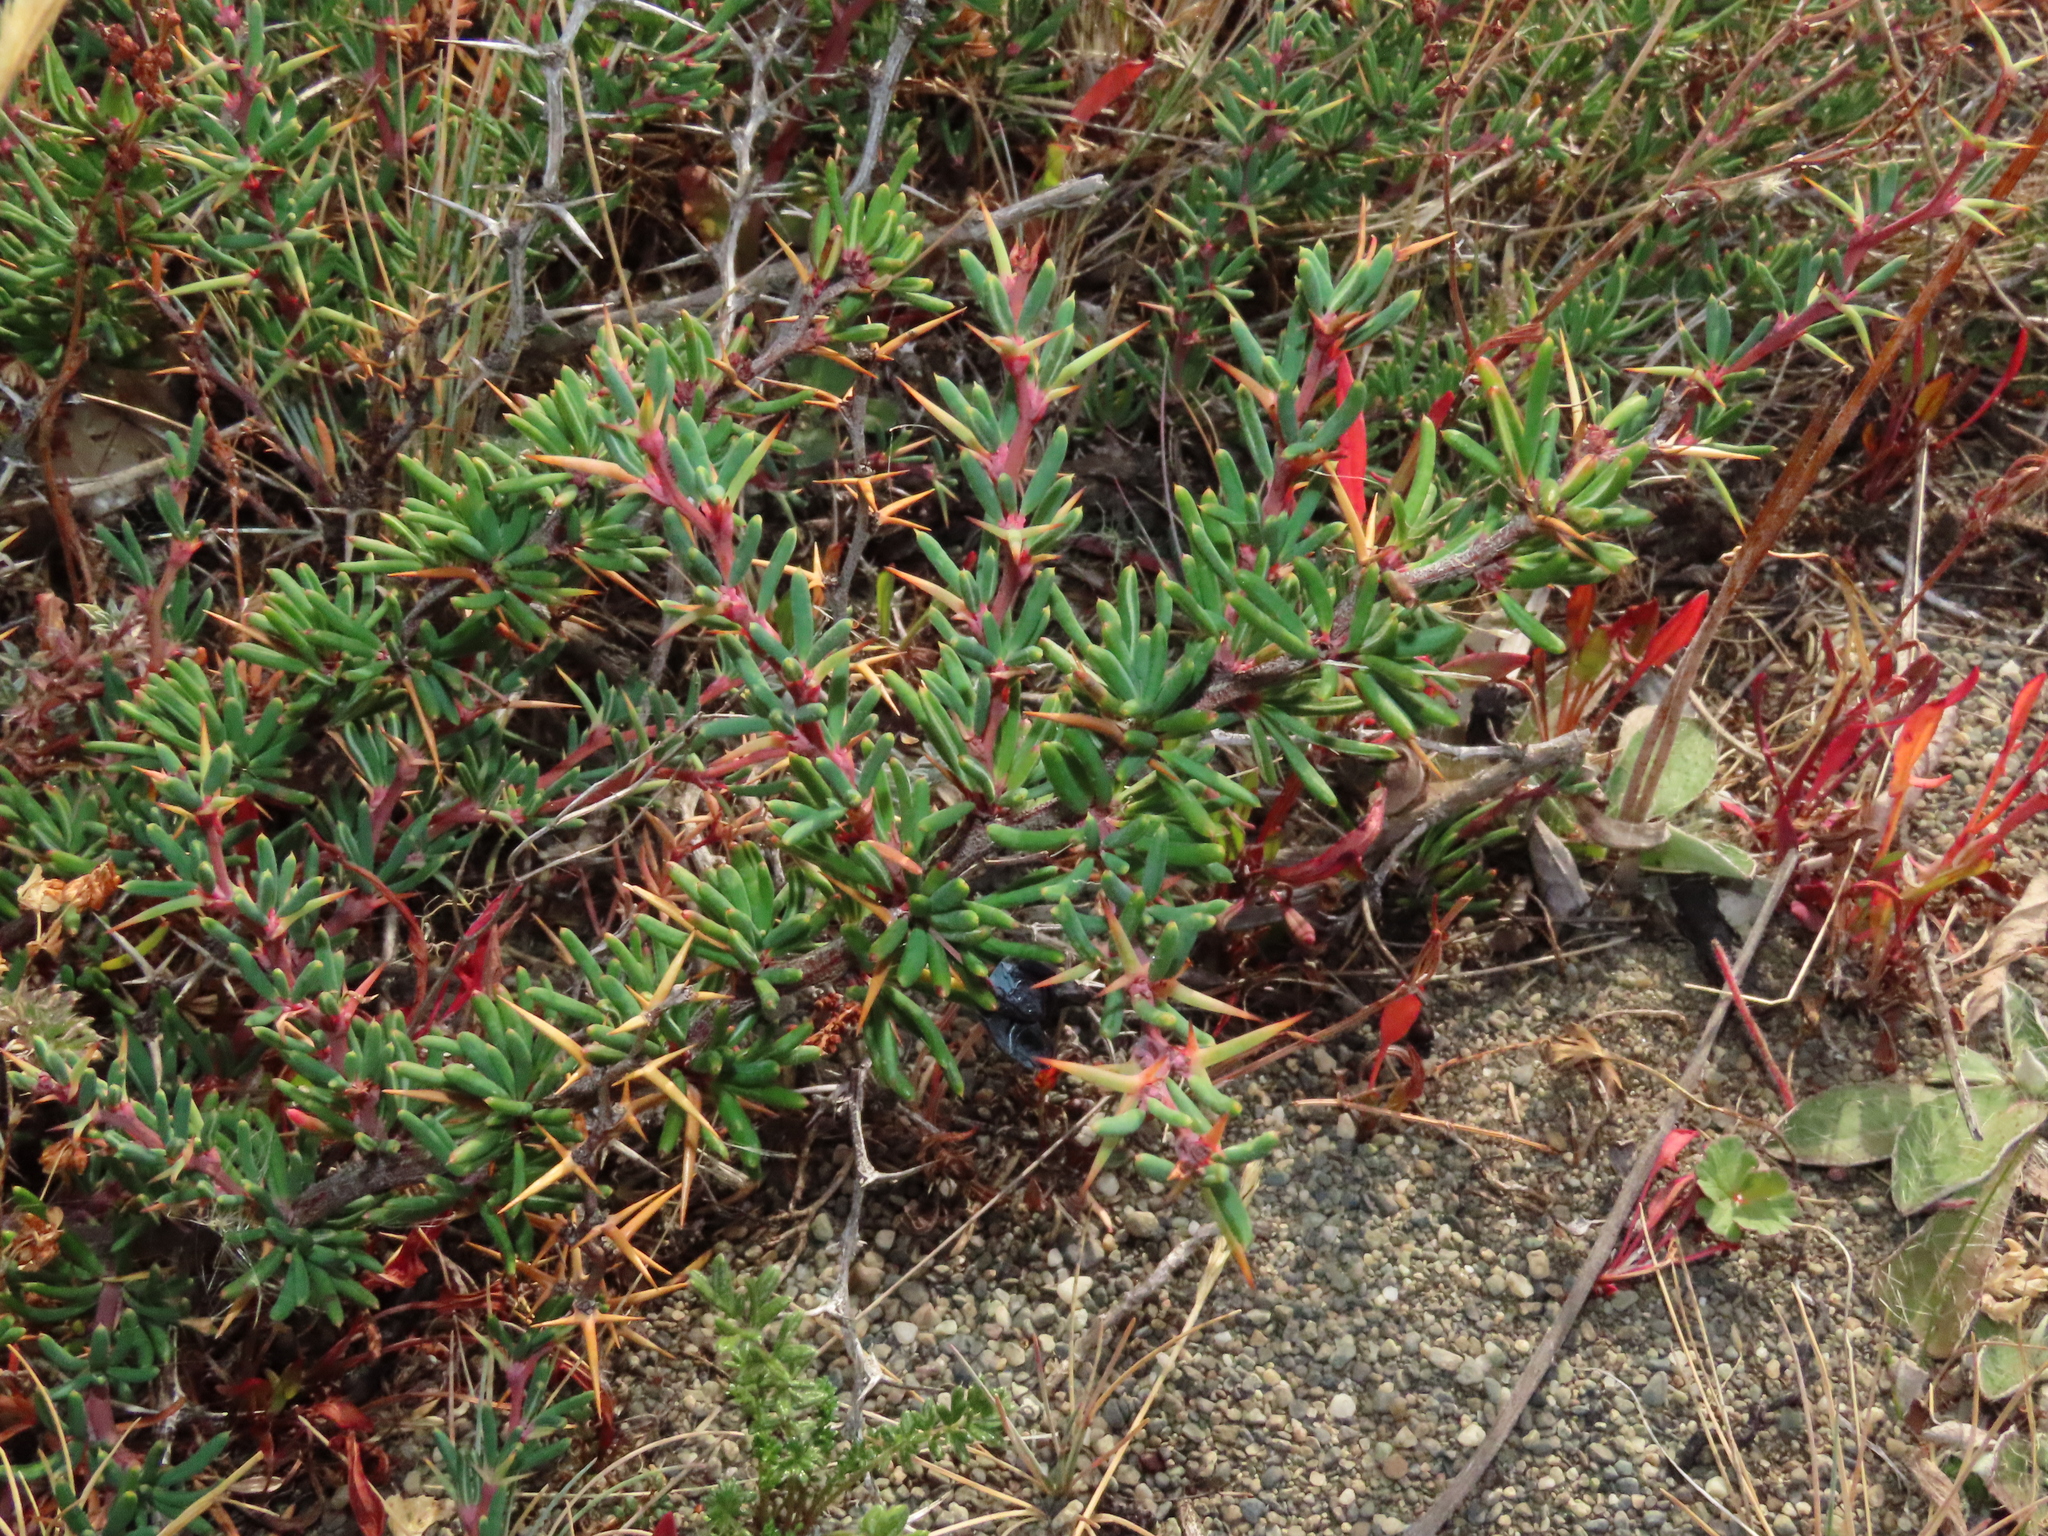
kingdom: Plantae
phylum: Tracheophyta
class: Magnoliopsida
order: Ranunculales
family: Berberidaceae
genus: Berberis
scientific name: Berberis empetrifolia
